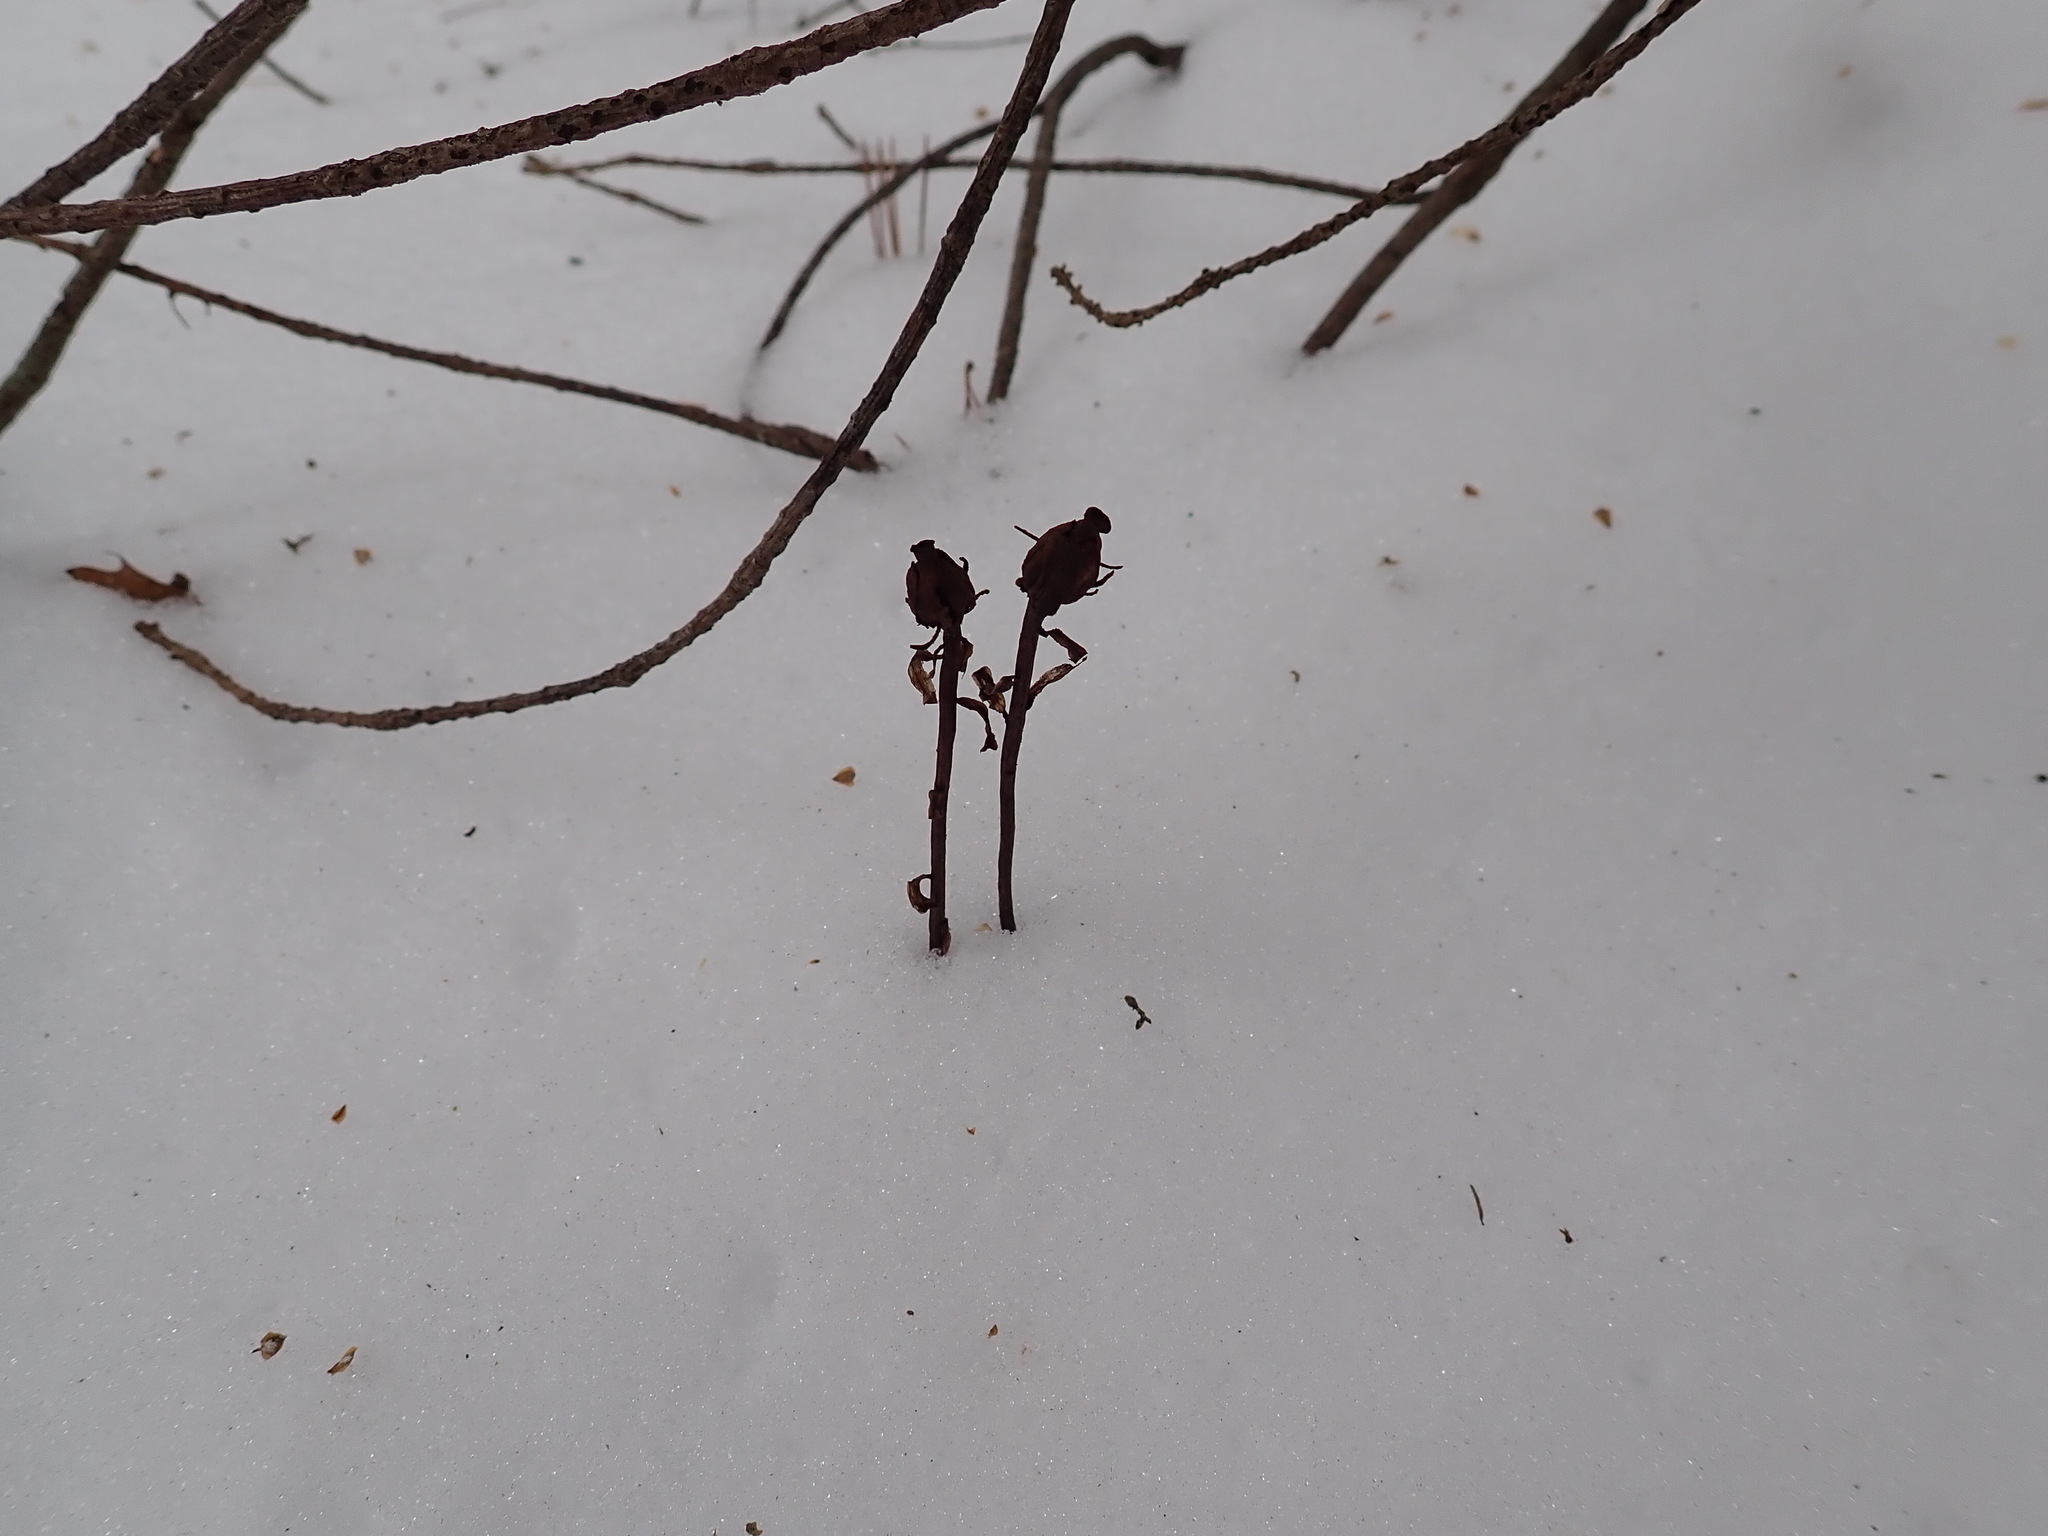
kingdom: Plantae
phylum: Tracheophyta
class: Magnoliopsida
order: Ericales
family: Ericaceae
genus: Monotropa
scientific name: Monotropa uniflora
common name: Convulsion root
